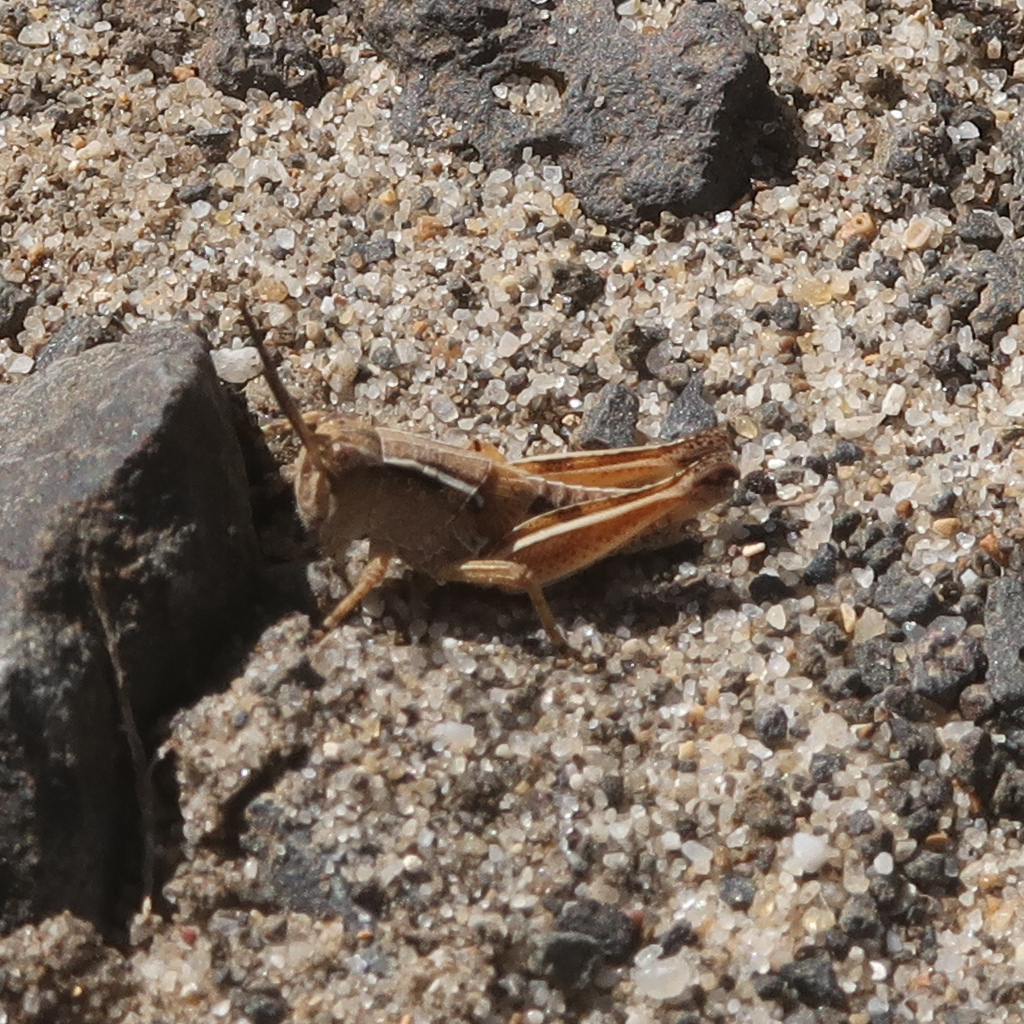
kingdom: Animalia
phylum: Arthropoda
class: Insecta
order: Orthoptera
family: Acrididae
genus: Phaulacridium
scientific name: Phaulacridium vittatum
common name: Wingless grasshopper
